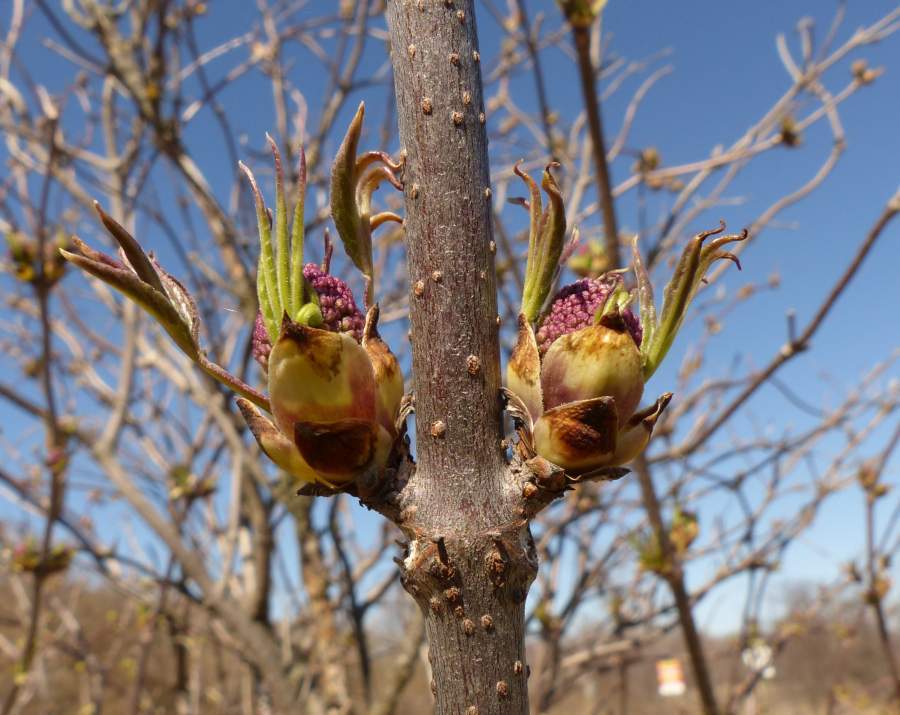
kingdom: Plantae
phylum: Tracheophyta
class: Magnoliopsida
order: Dipsacales
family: Viburnaceae
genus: Sambucus
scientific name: Sambucus racemosa
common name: Red-berried elder
